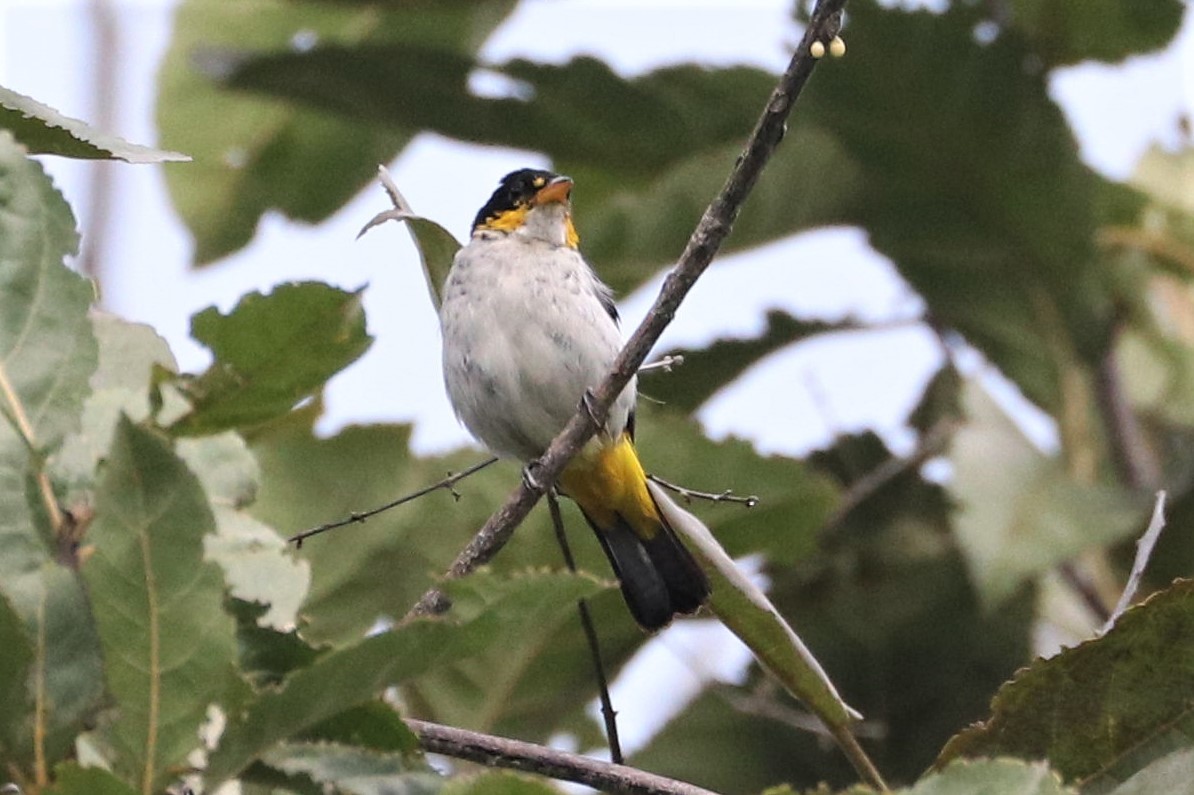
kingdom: Animalia
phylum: Chordata
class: Aves
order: Passeriformes
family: Thraupidae
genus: Hemithraupis
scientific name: Hemithraupis flavicollis
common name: Yellow-backed tanager
